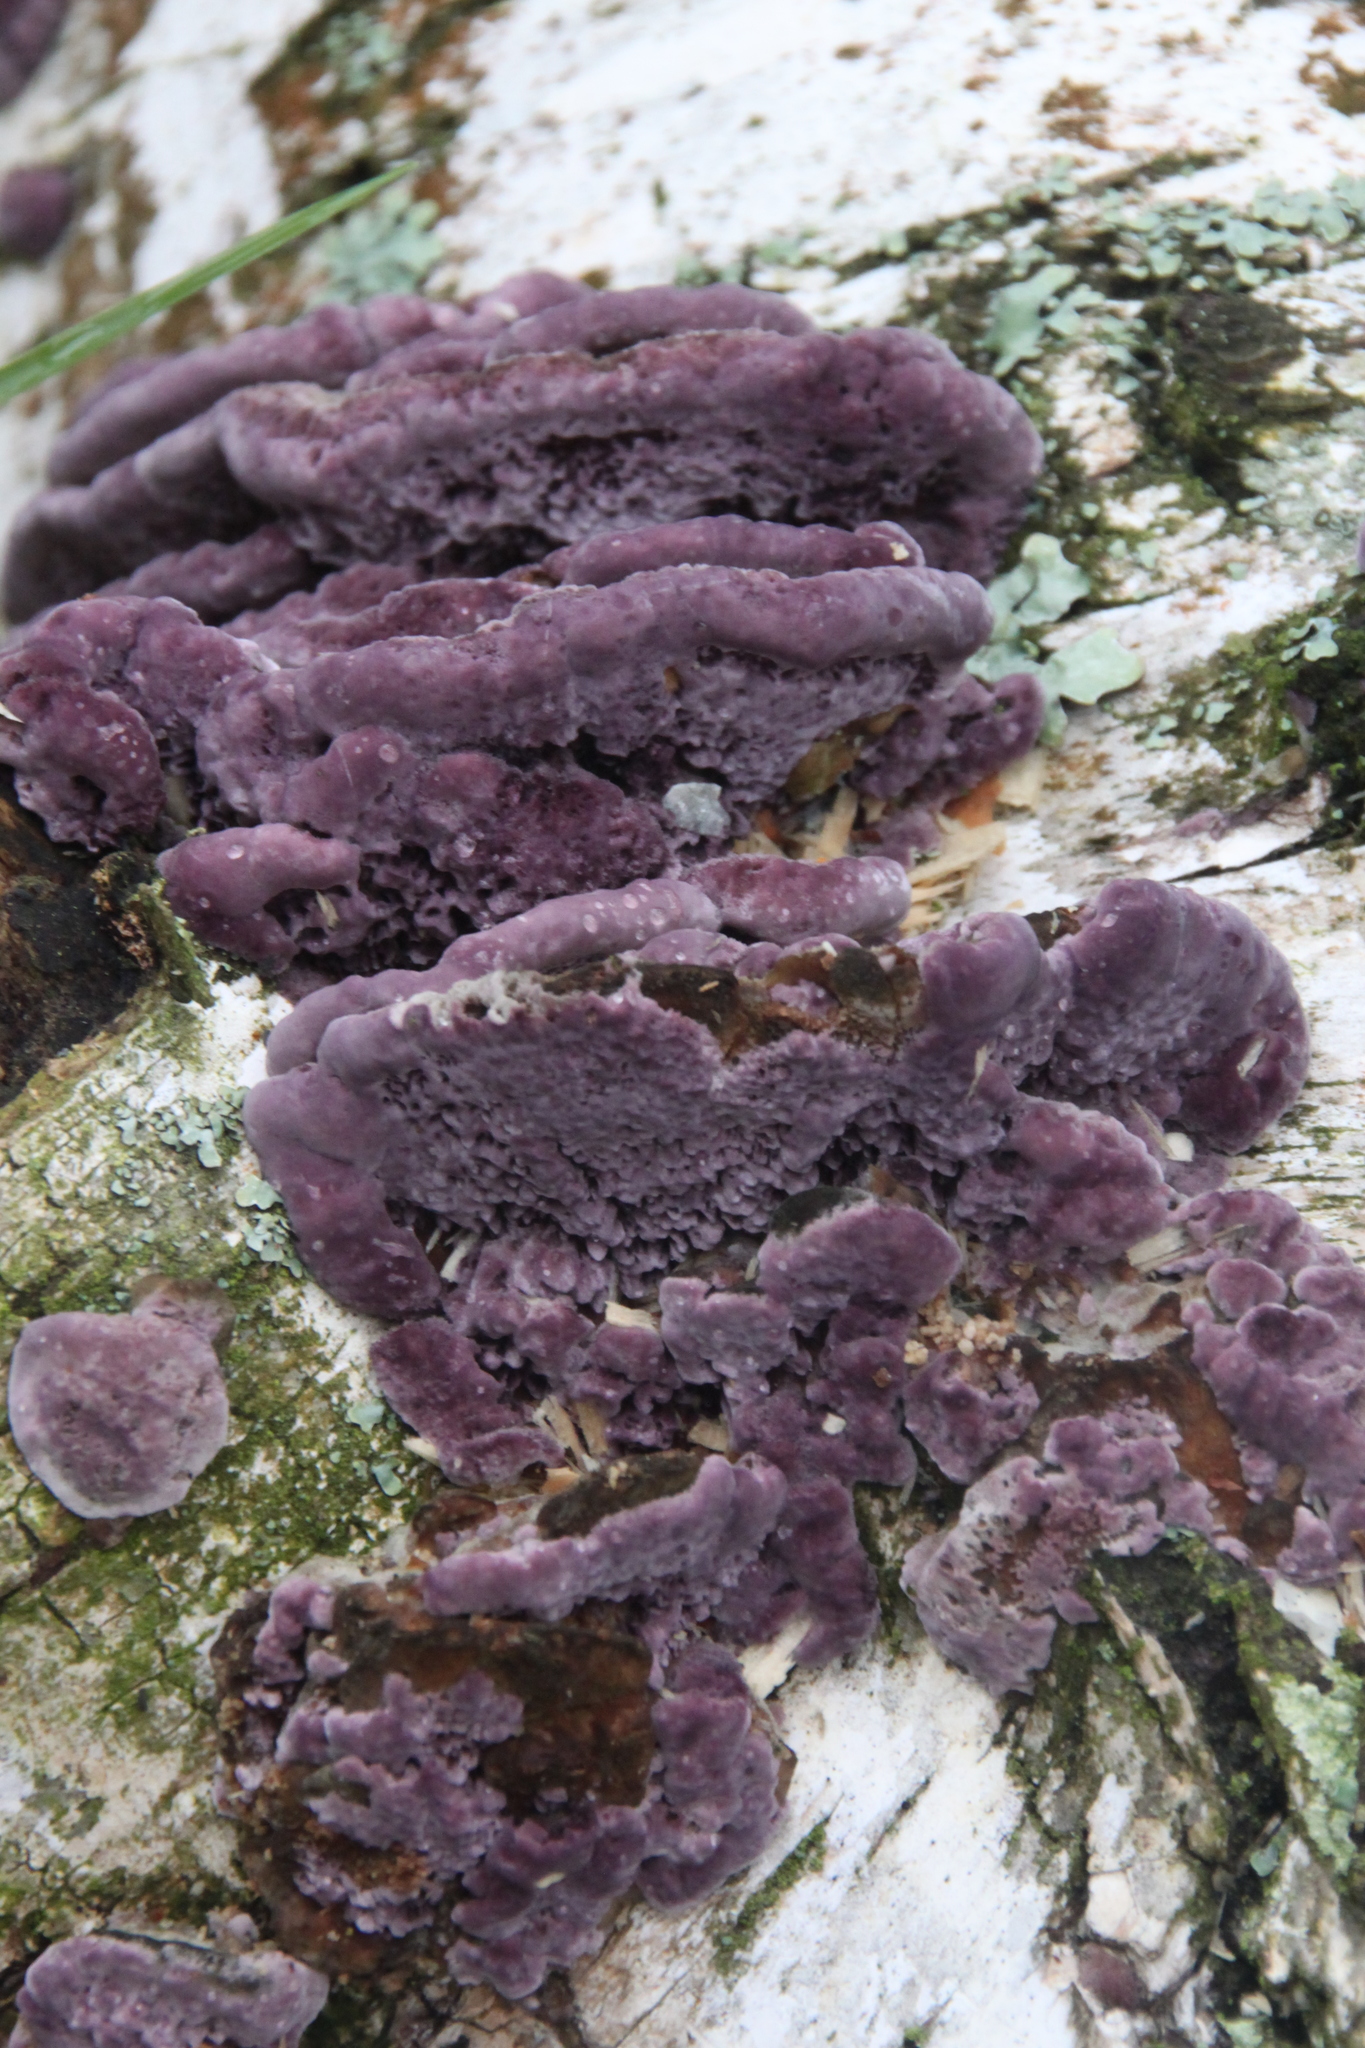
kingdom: Fungi
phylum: Basidiomycota
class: Agaricomycetes
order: Hymenochaetales
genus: Trichaptum
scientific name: Trichaptum biforme
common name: Violet-toothed polypore
